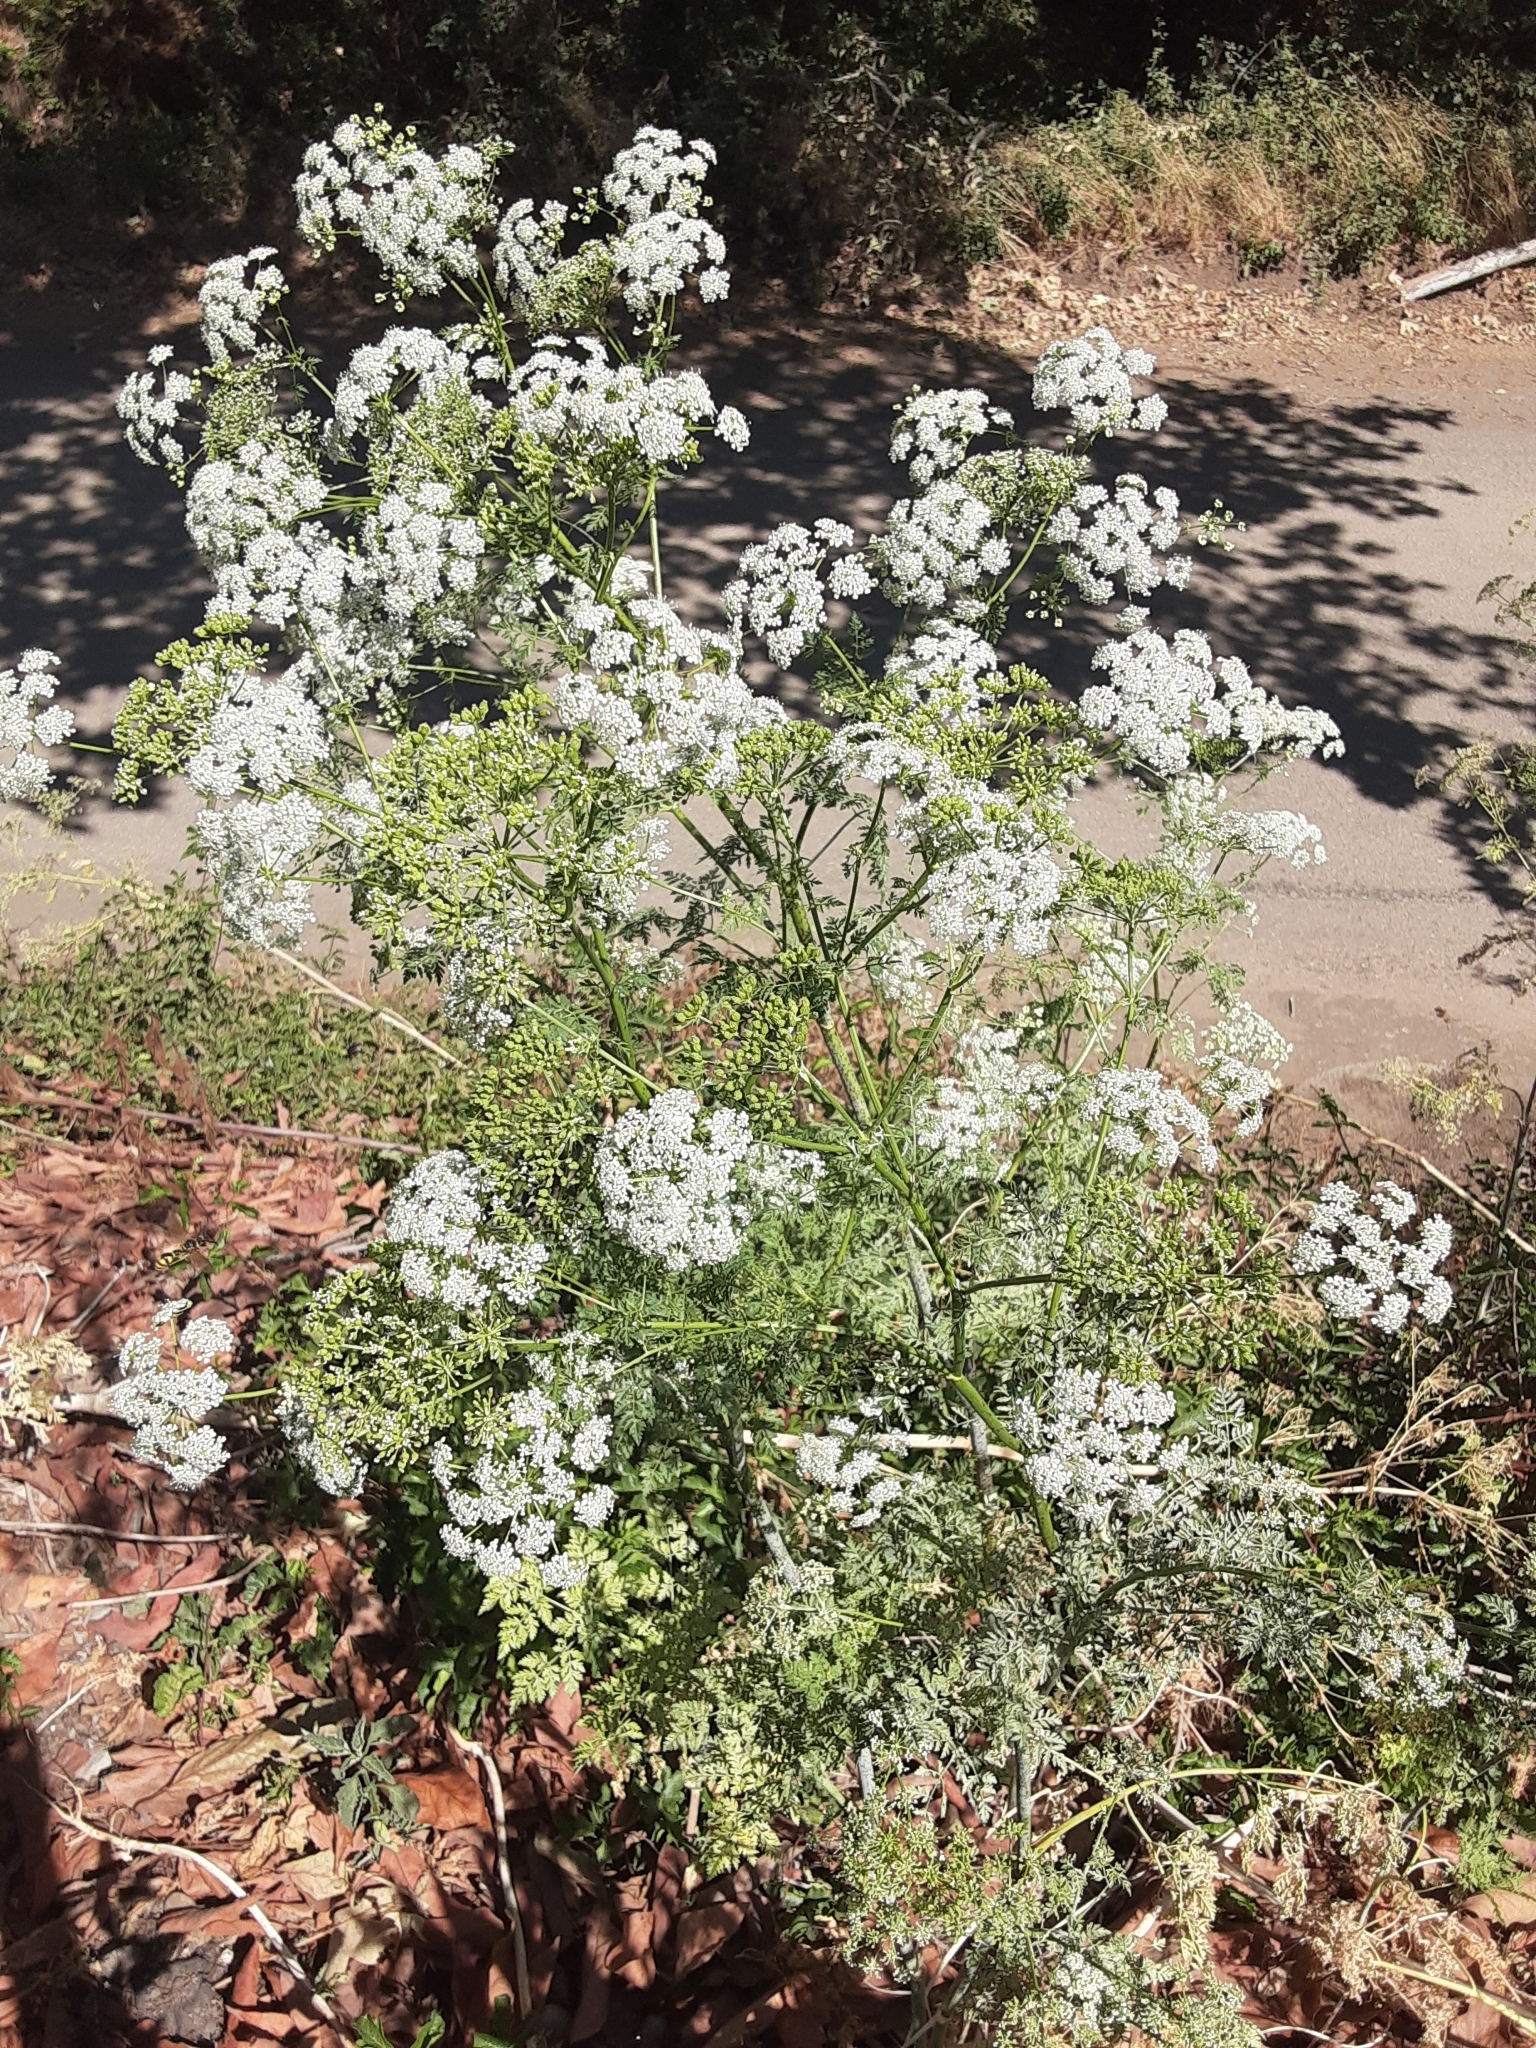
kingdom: Plantae
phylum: Tracheophyta
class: Magnoliopsida
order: Apiales
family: Apiaceae
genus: Conium
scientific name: Conium maculatum
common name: Hemlock
